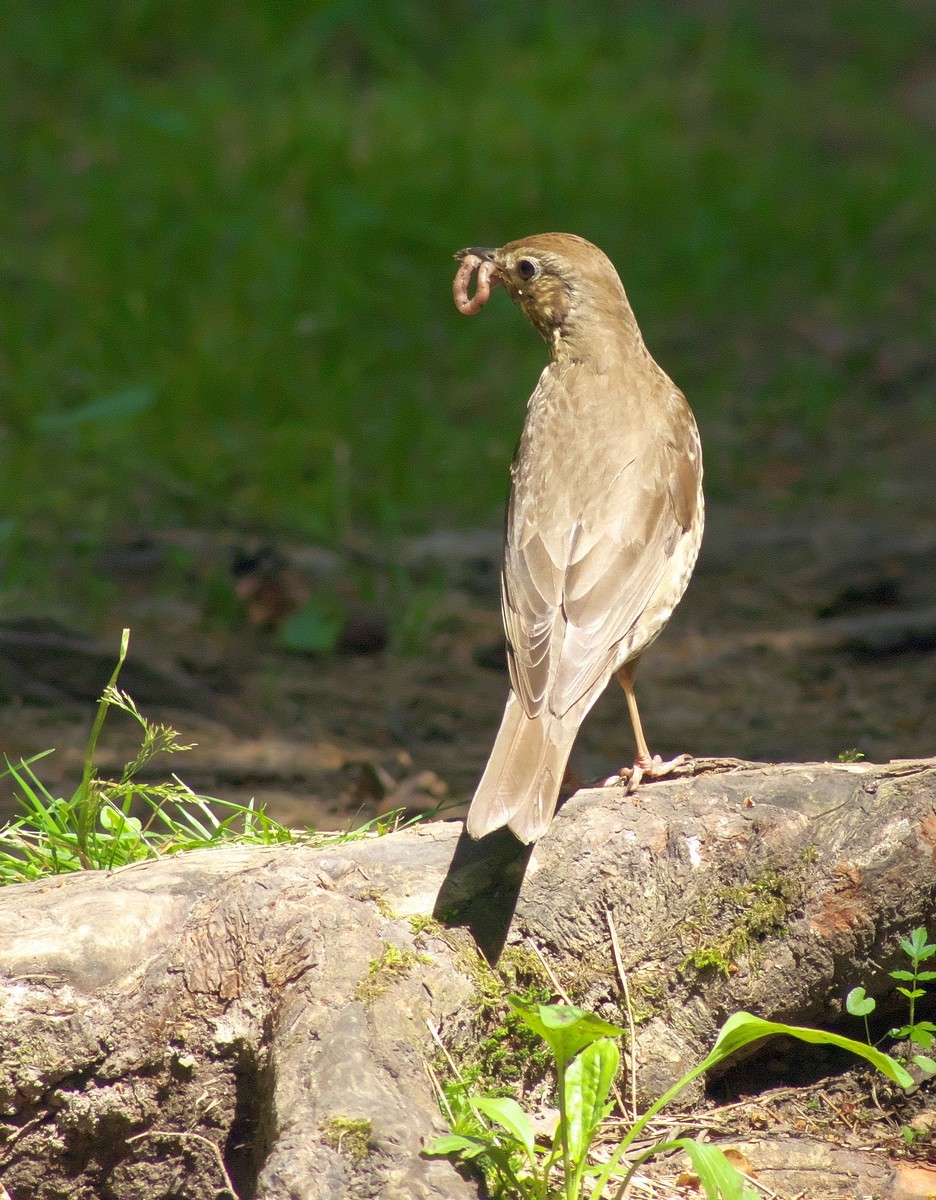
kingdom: Animalia
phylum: Chordata
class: Aves
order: Passeriformes
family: Turdidae
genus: Turdus
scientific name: Turdus philomelos
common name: Song thrush
